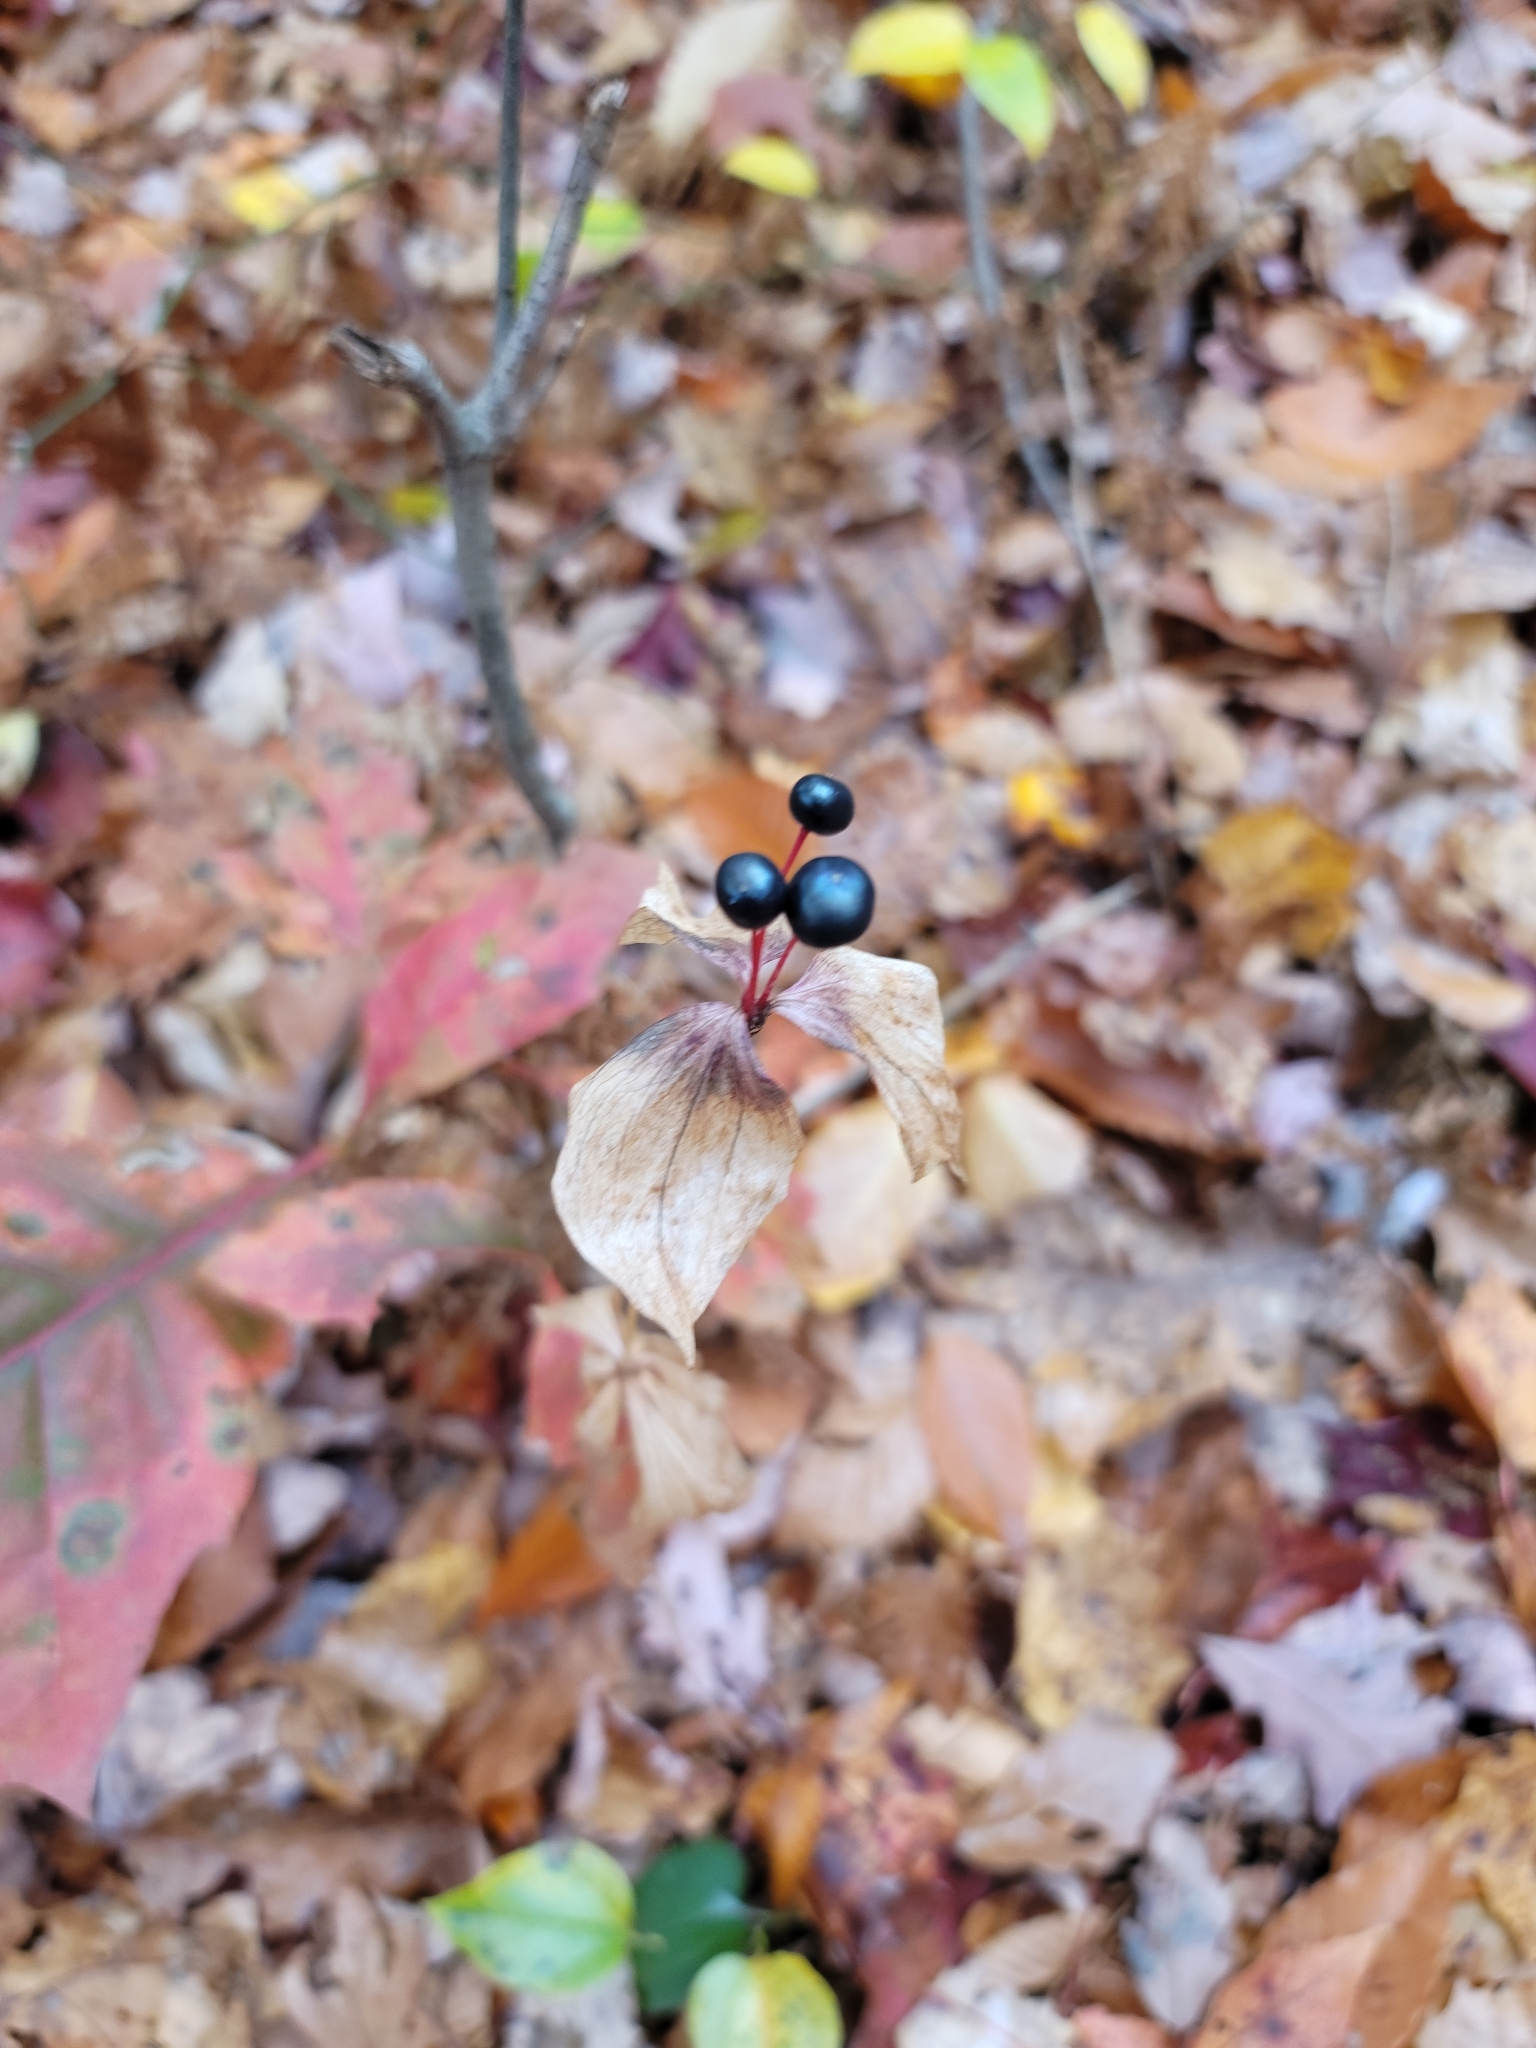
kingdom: Plantae
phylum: Tracheophyta
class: Liliopsida
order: Liliales
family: Liliaceae
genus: Medeola
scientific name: Medeola virginiana
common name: Indian cucumber-root
